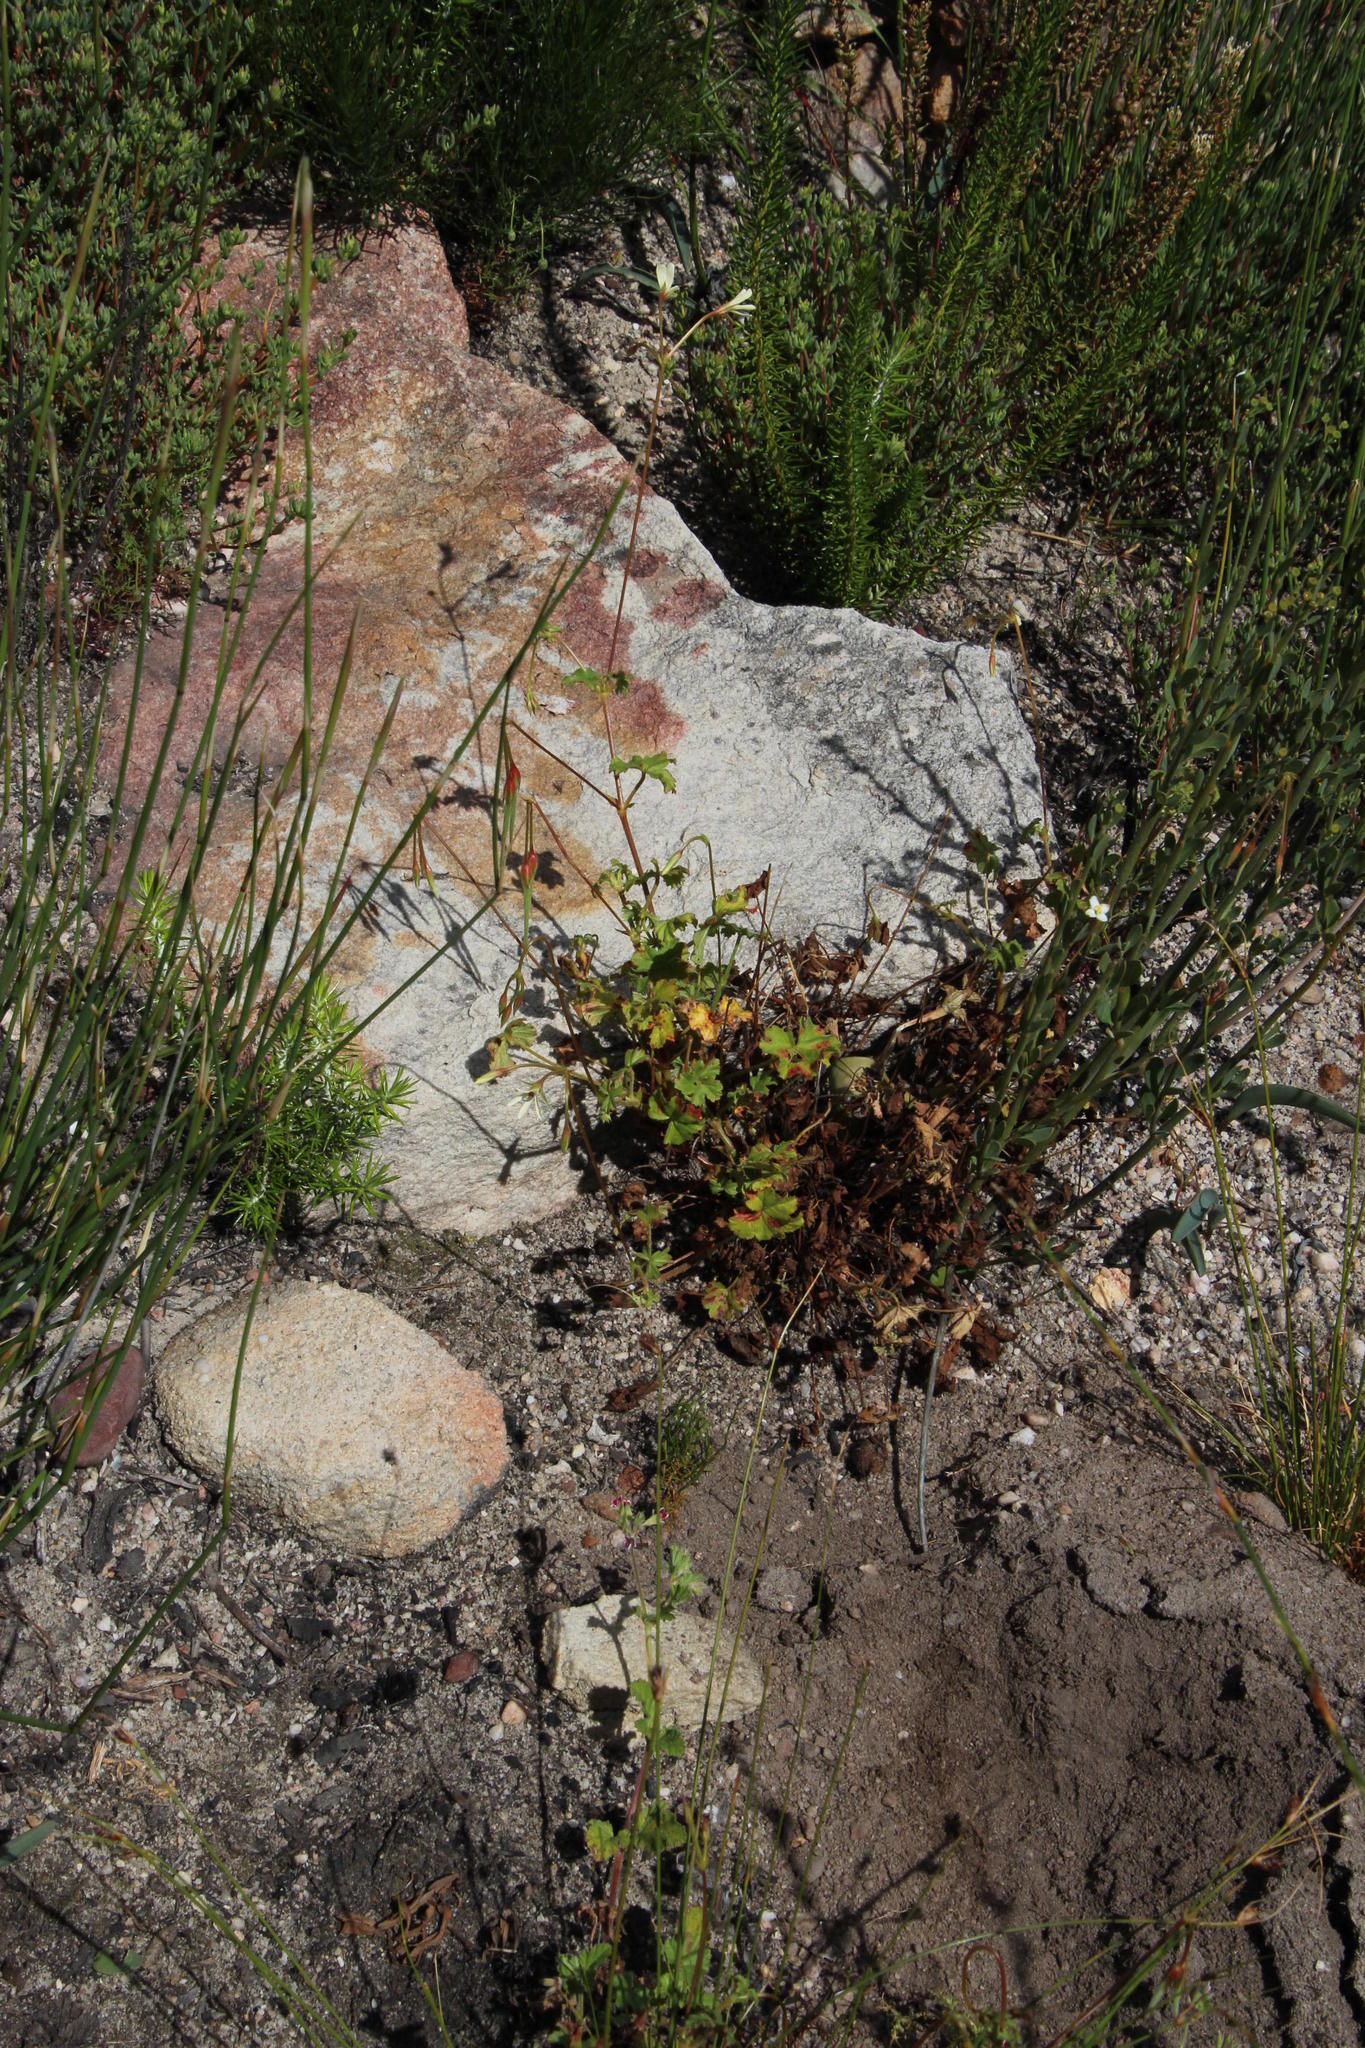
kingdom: Plantae
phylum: Tracheophyta
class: Magnoliopsida
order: Geraniales
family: Geraniaceae
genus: Pelargonium
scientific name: Pelargonium elongatum
